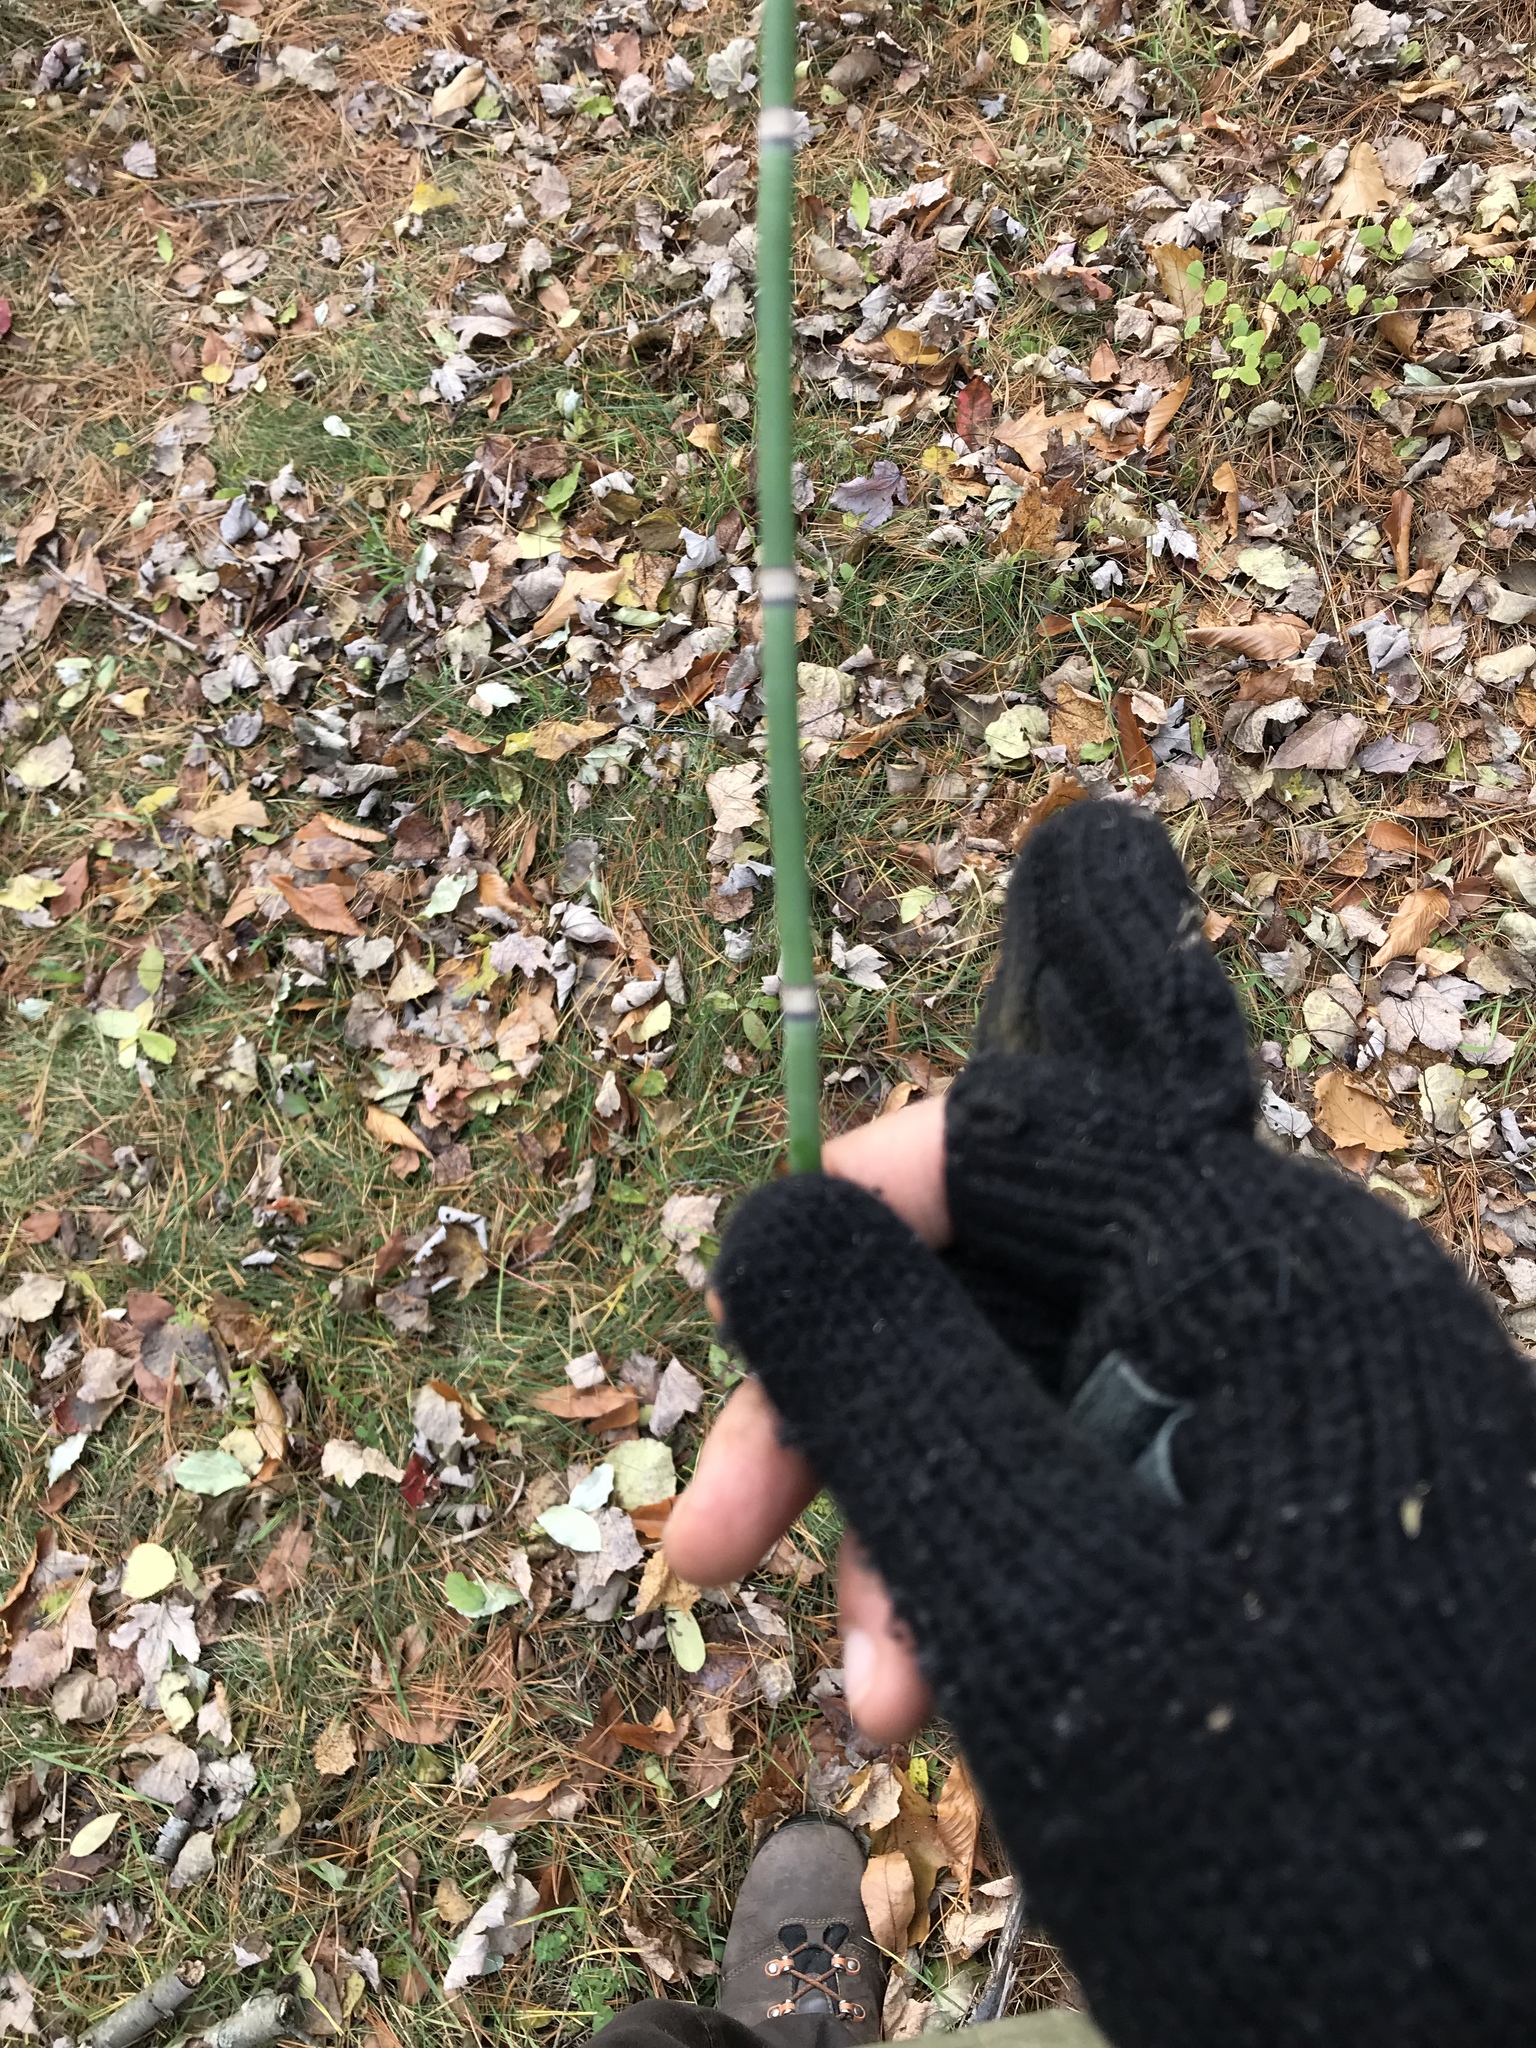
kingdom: Plantae
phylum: Tracheophyta
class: Polypodiopsida
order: Equisetales
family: Equisetaceae
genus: Equisetum
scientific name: Equisetum praealtum
